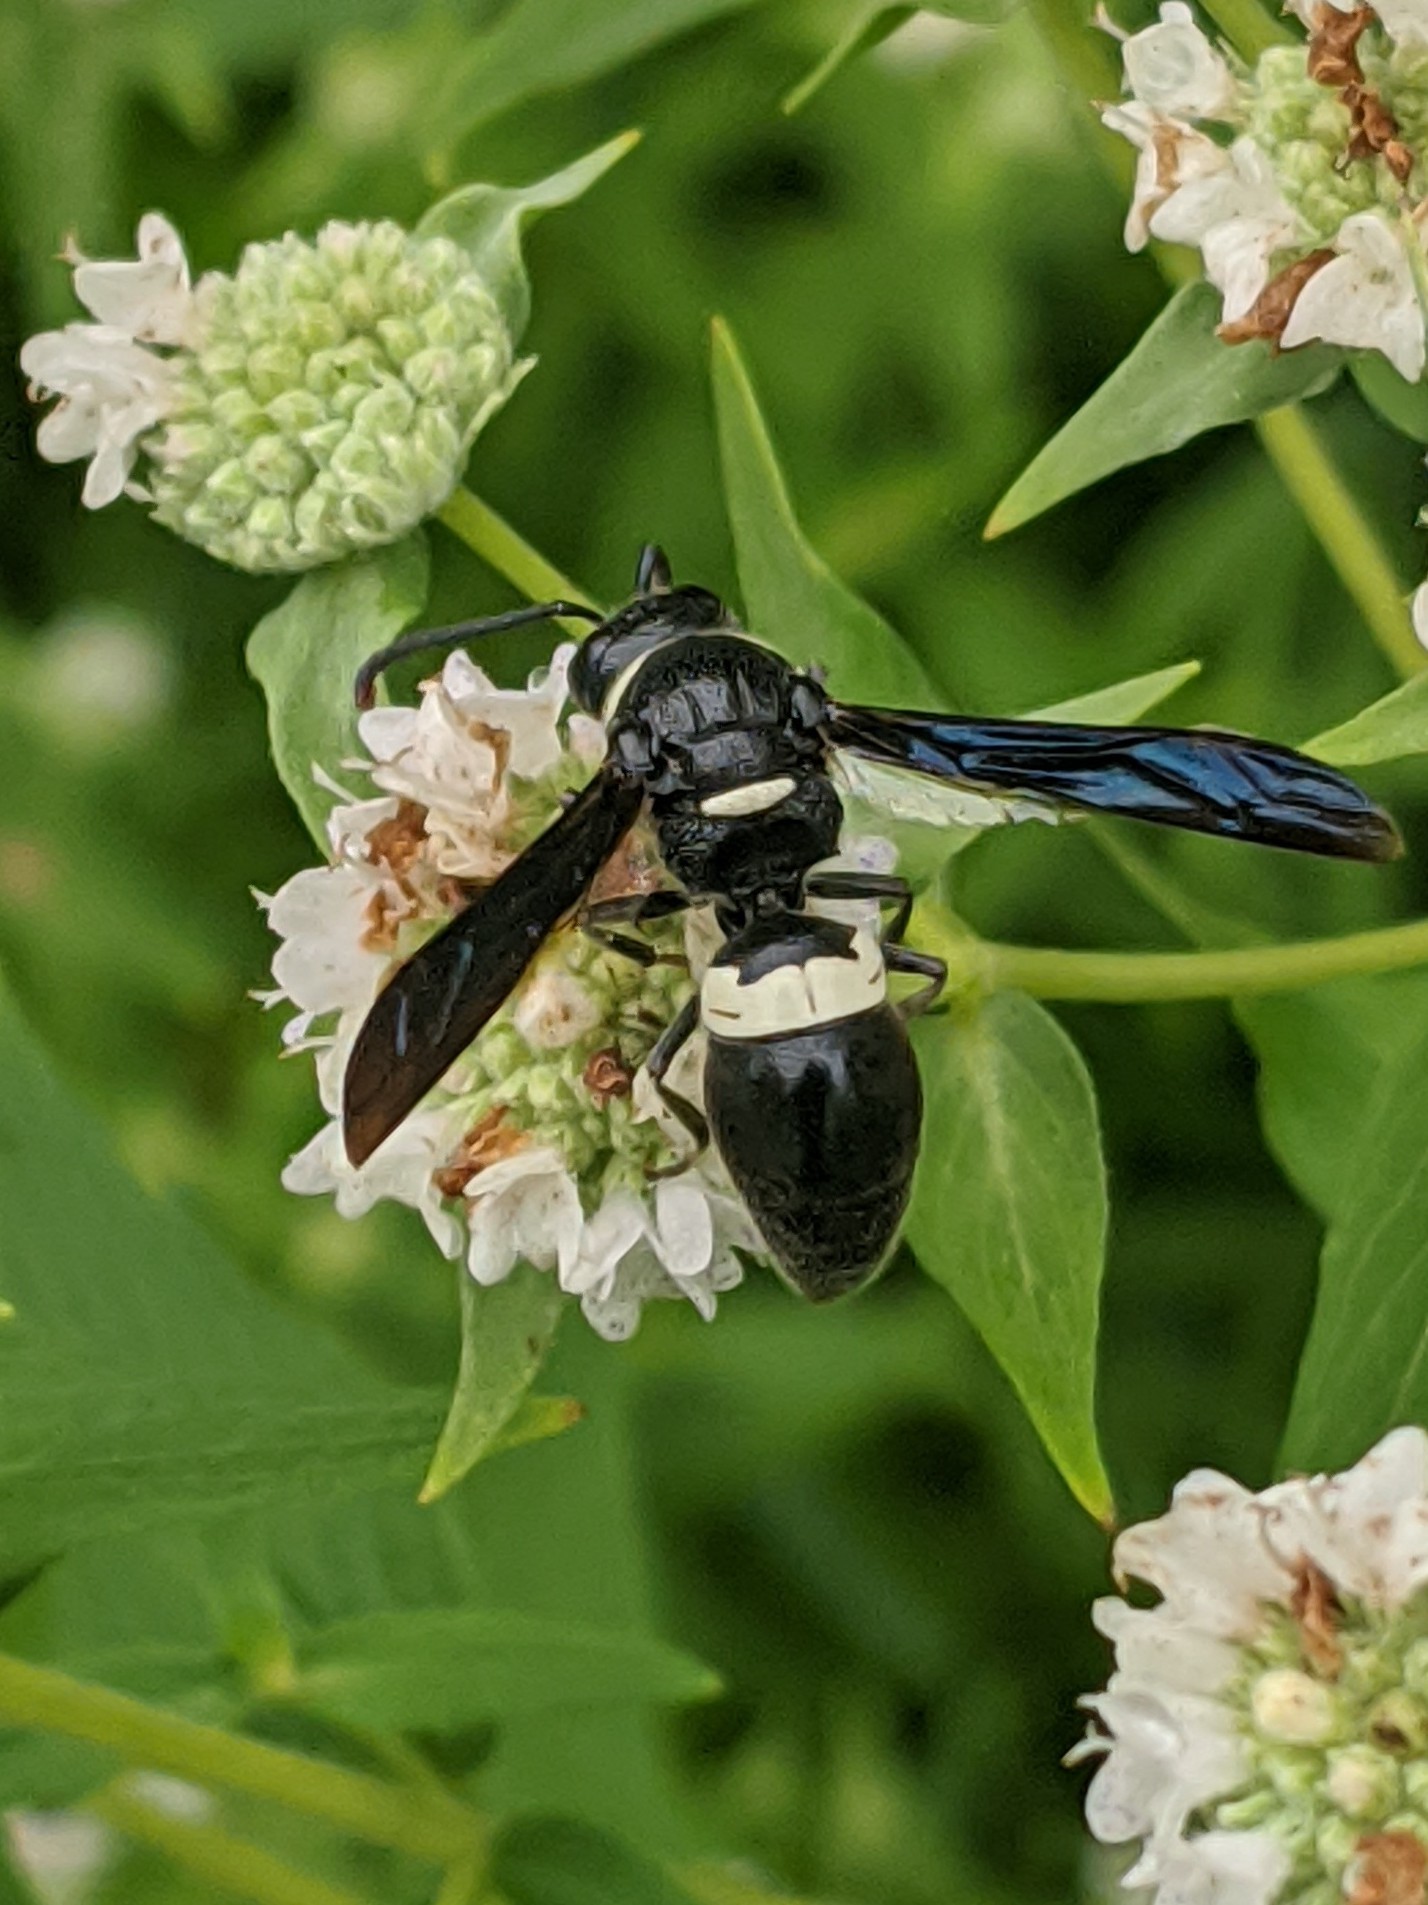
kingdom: Animalia
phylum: Arthropoda
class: Insecta
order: Hymenoptera
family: Eumenidae
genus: Monobia
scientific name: Monobia quadridens
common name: Four-toothed mason wasp
